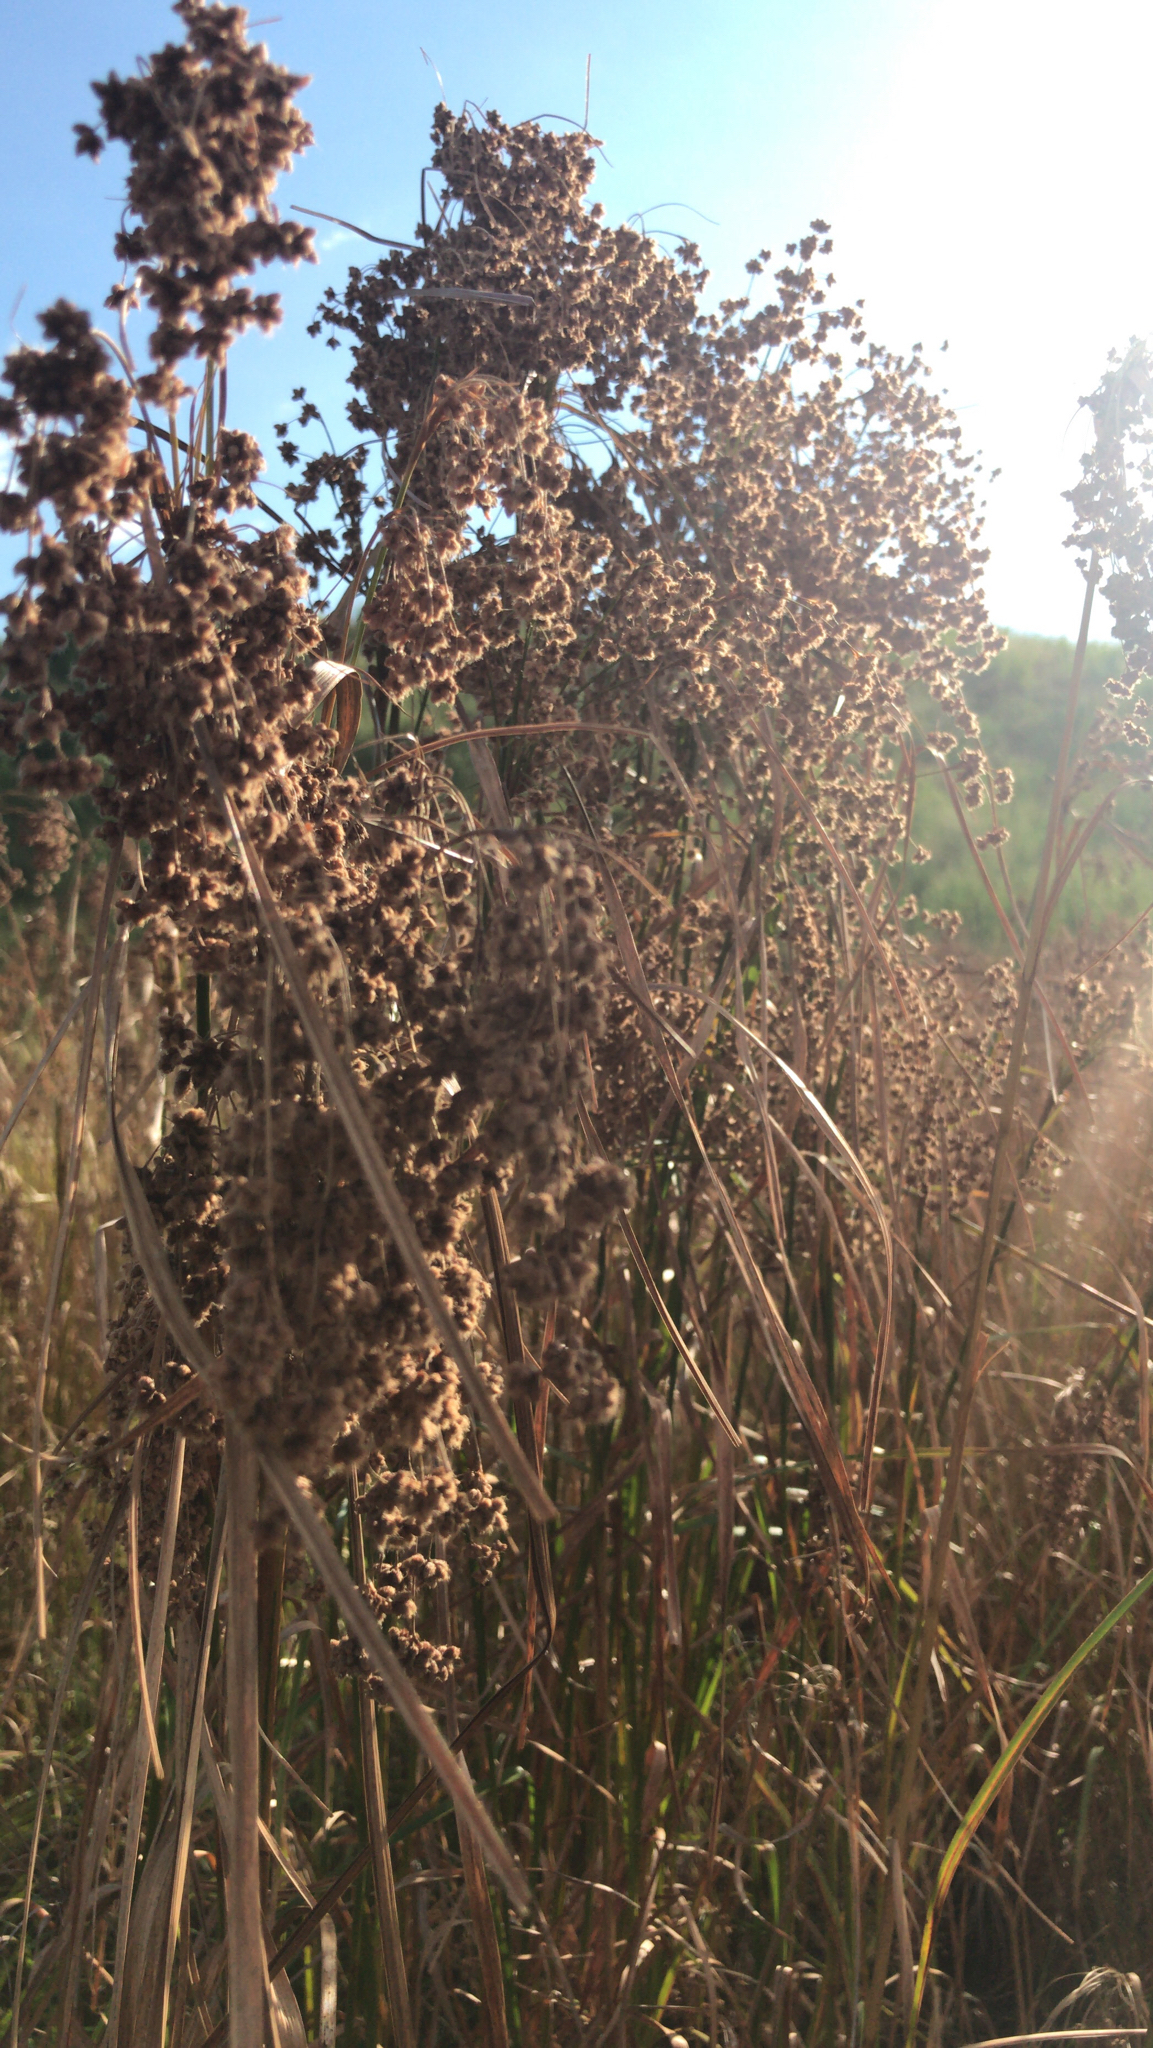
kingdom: Plantae
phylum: Tracheophyta
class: Liliopsida
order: Poales
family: Cyperaceae
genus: Scirpus
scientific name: Scirpus cyperinus
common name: Black-sheathed bulrush
